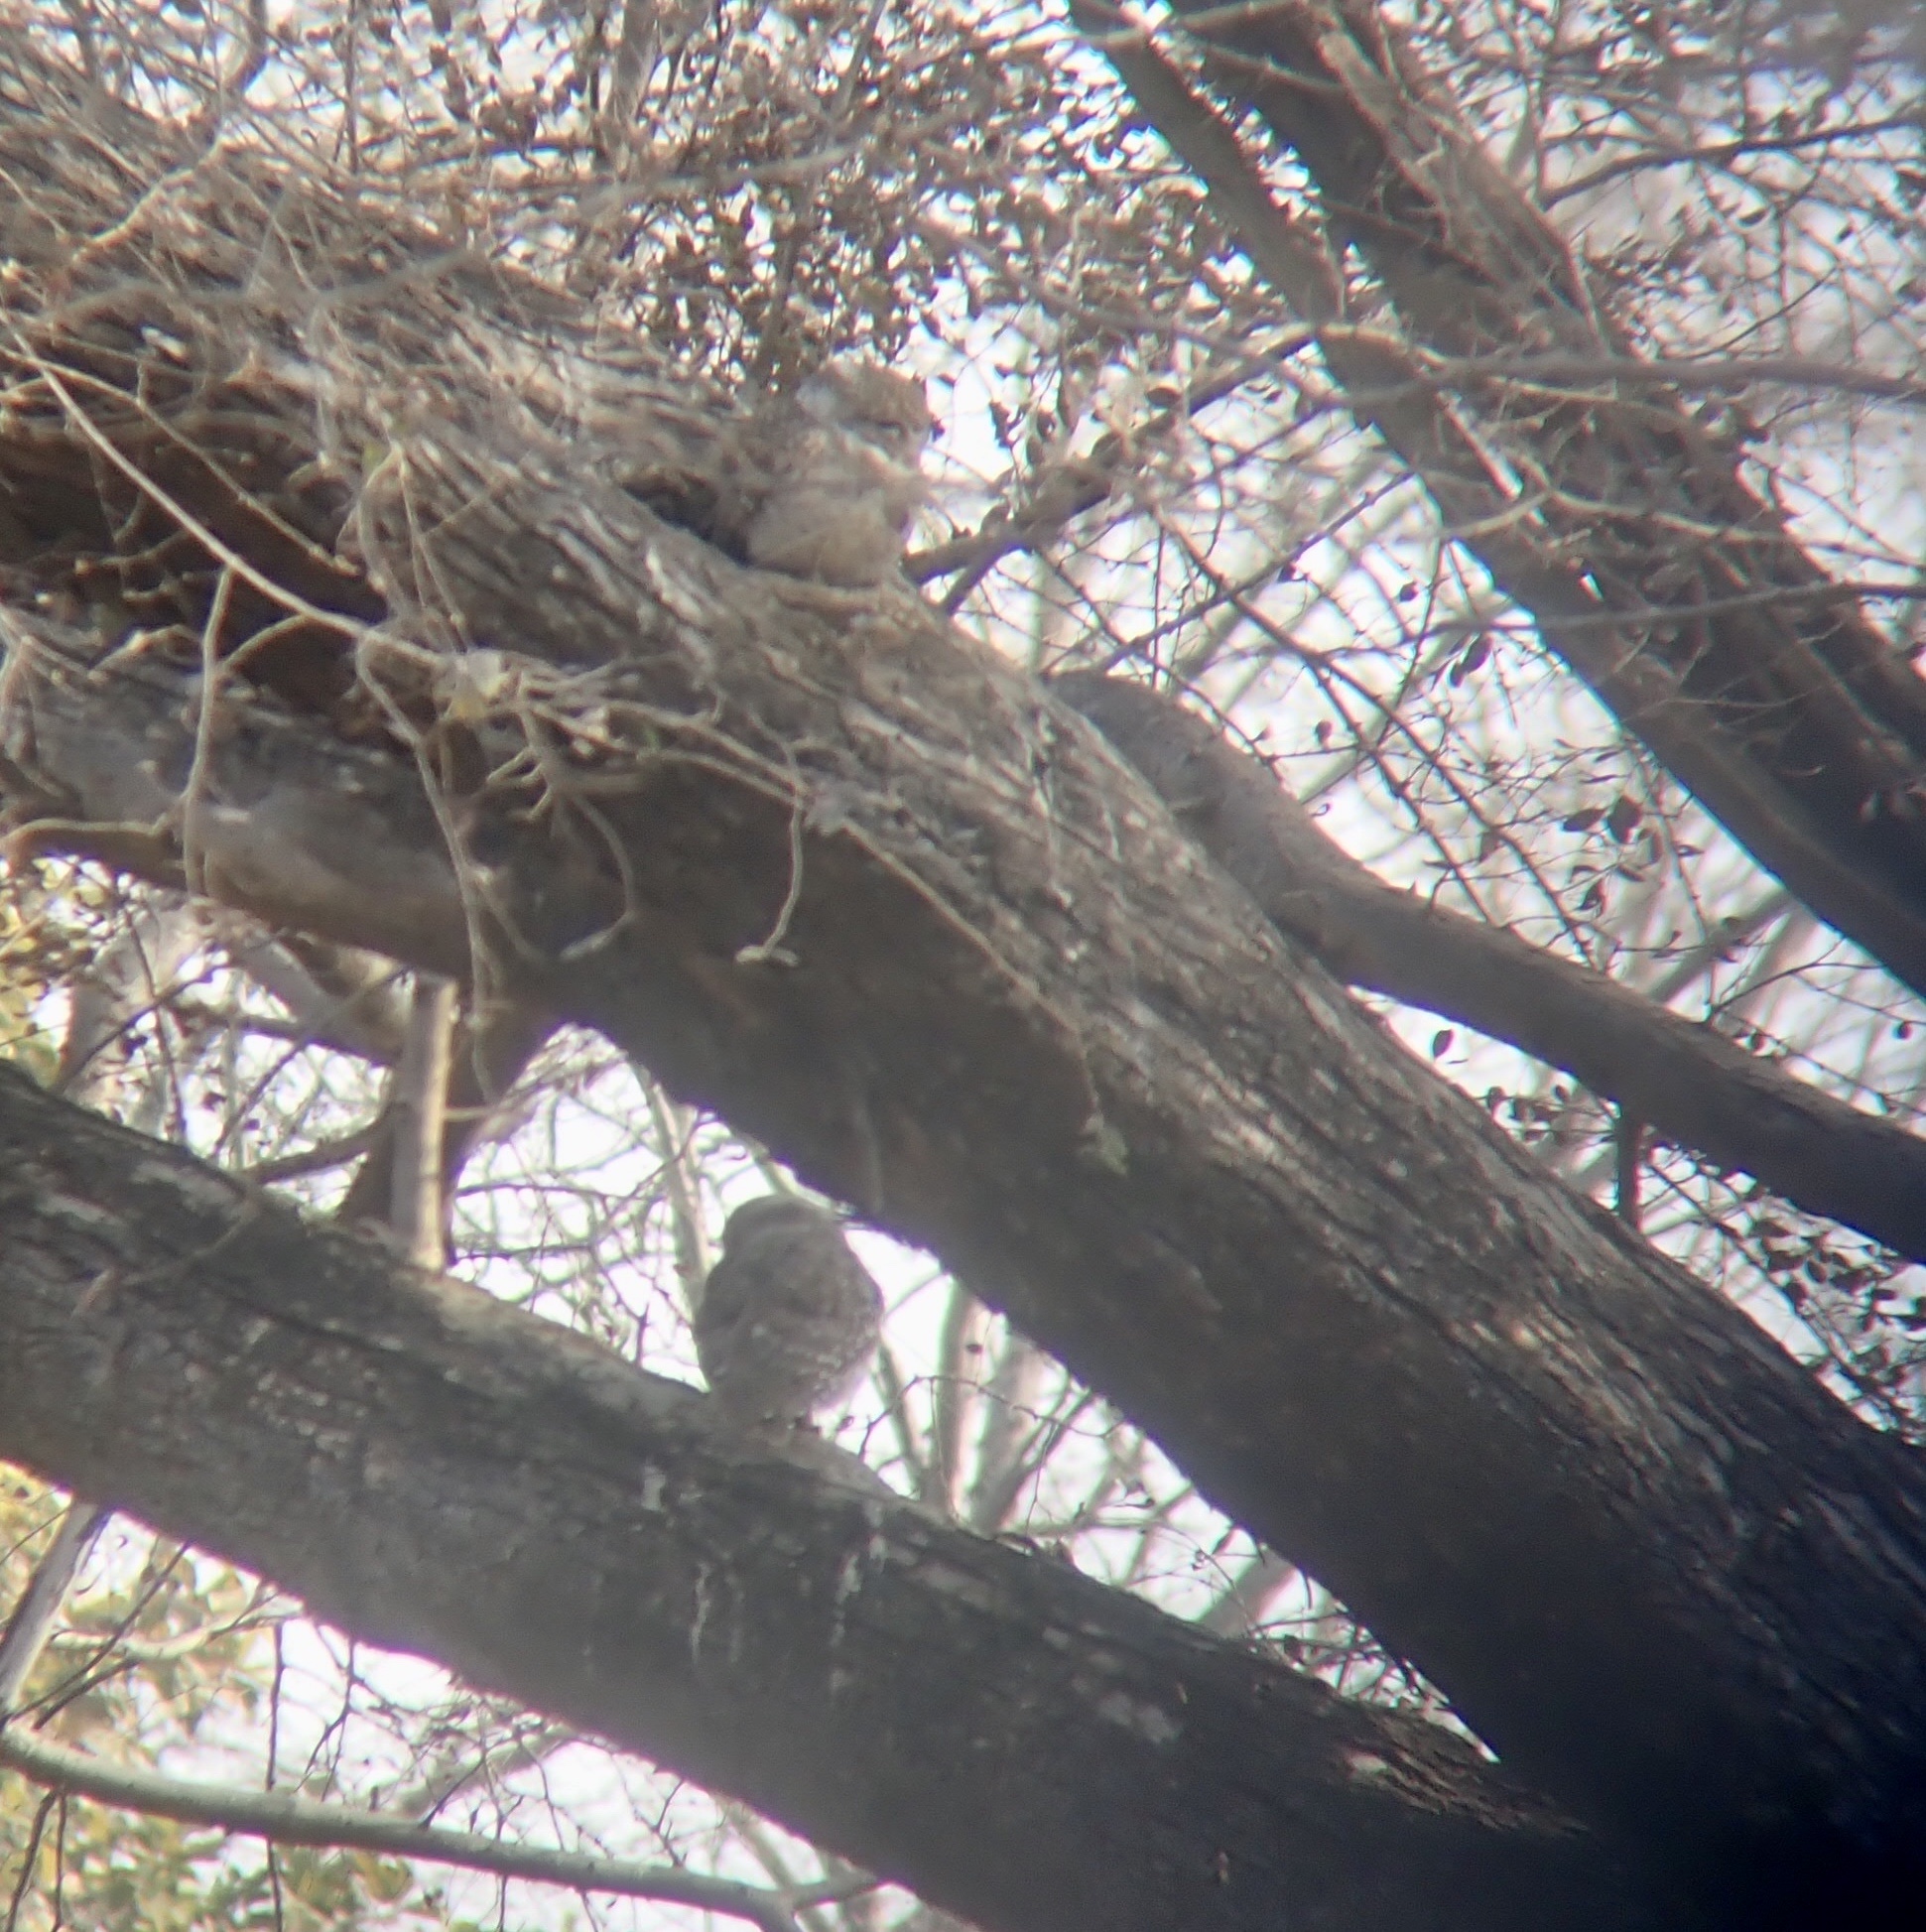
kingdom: Animalia
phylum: Chordata
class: Aves
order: Strigiformes
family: Strigidae
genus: Athene
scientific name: Athene brama
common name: Spotted owlet
